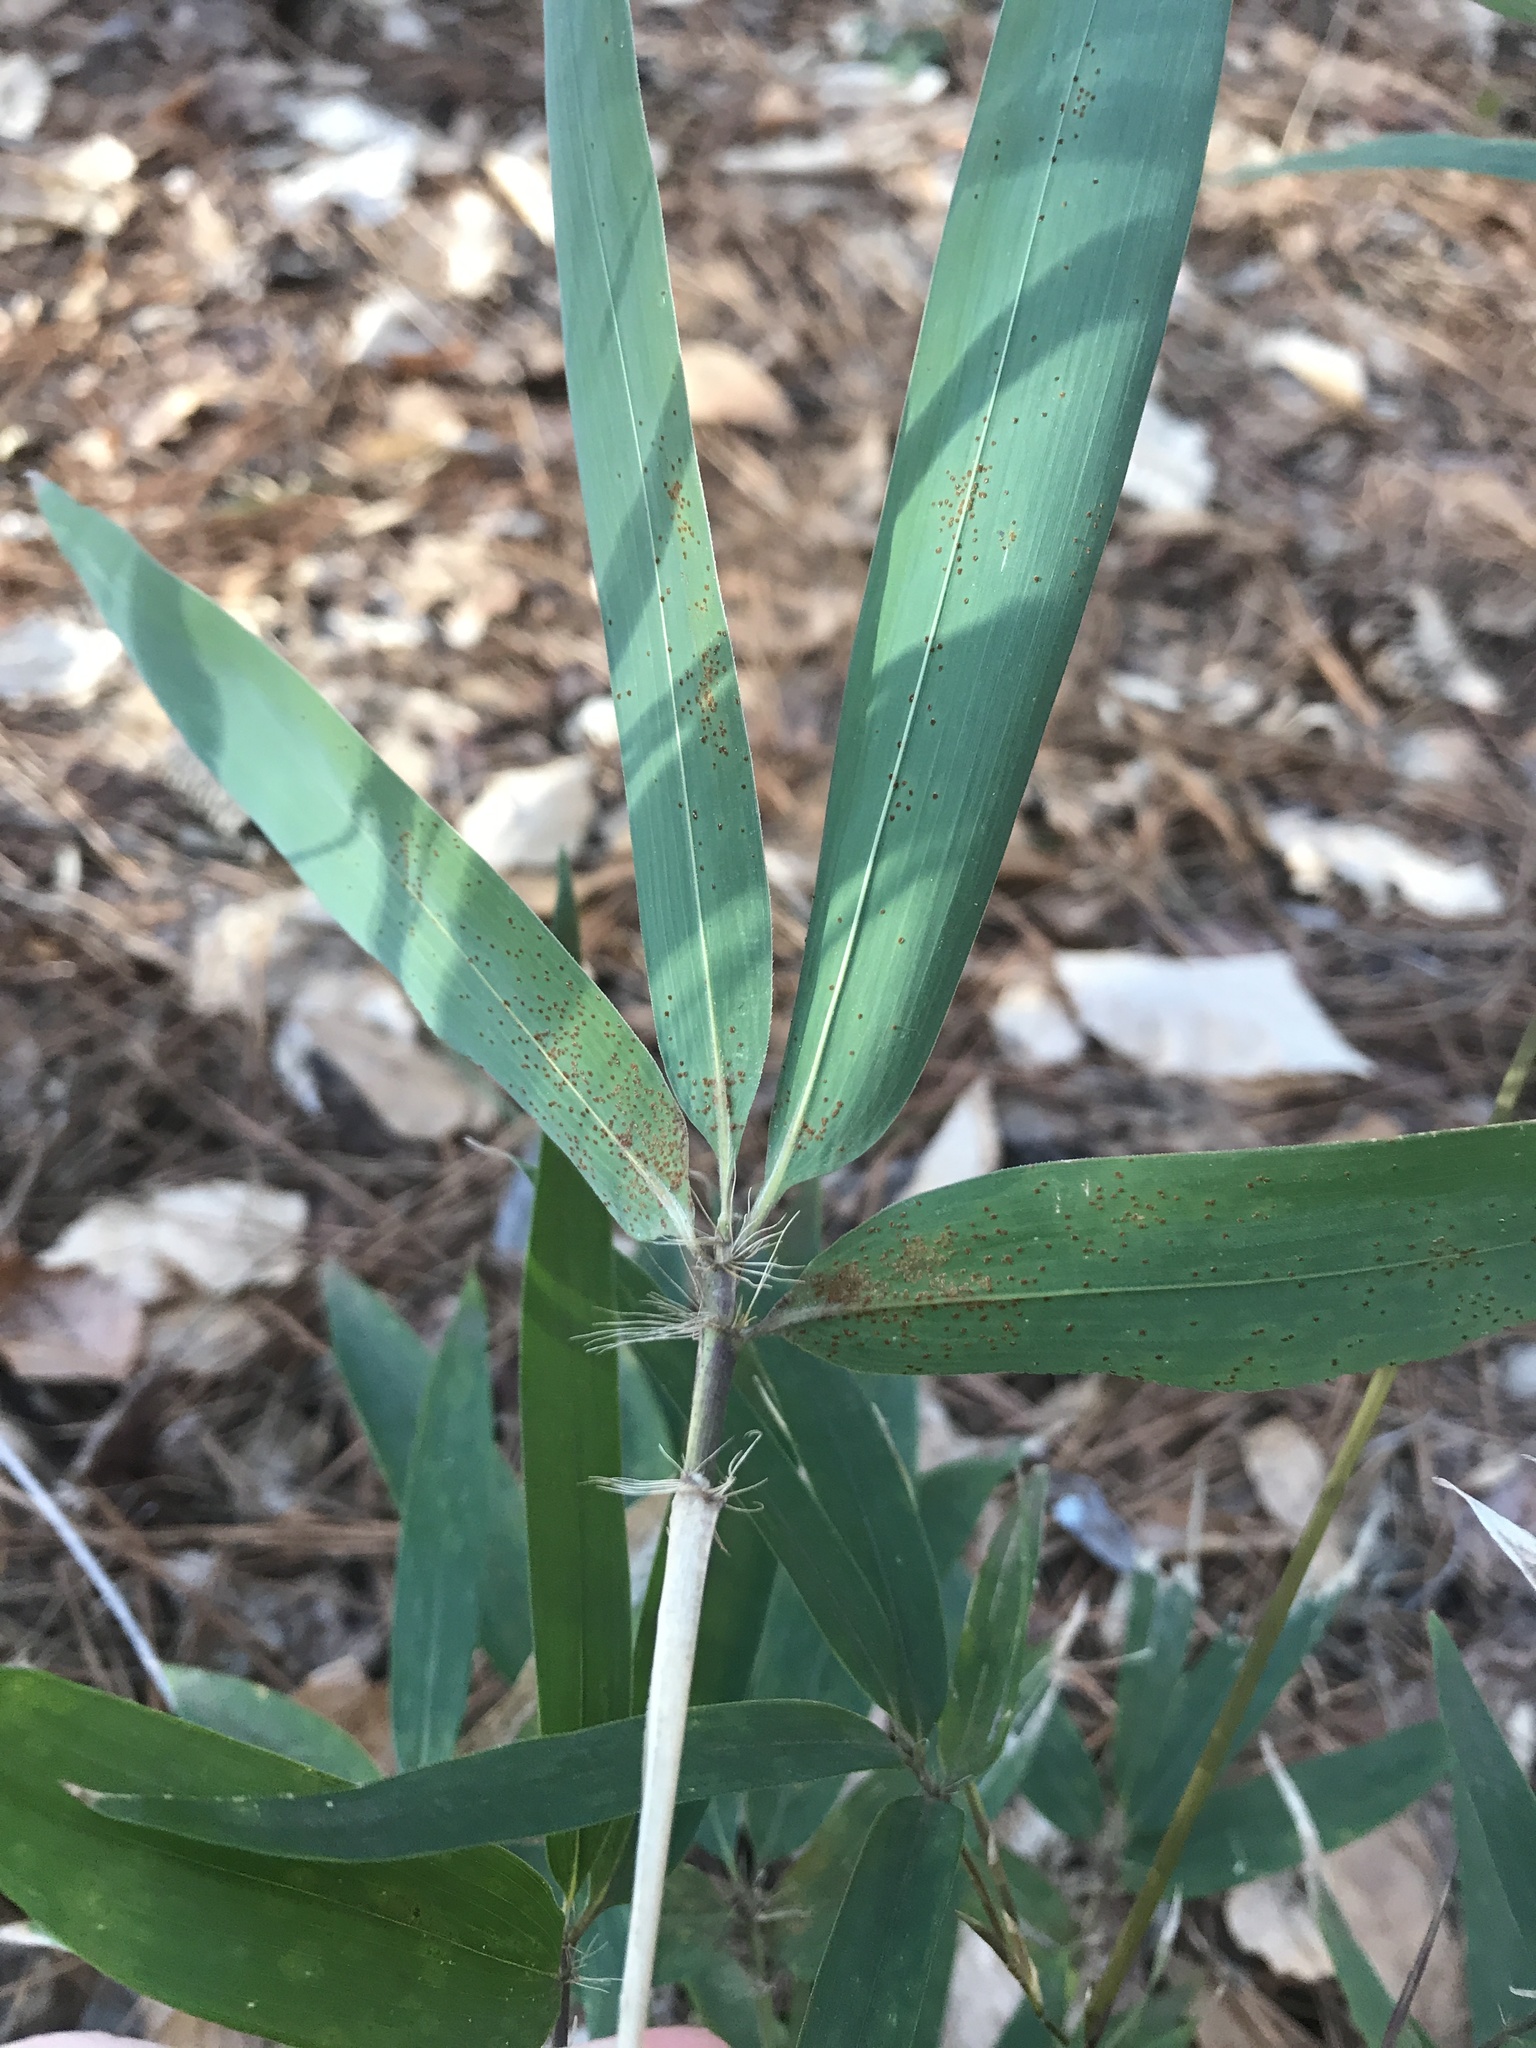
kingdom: Plantae
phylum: Tracheophyta
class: Liliopsida
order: Poales
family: Poaceae
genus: Arundinaria
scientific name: Arundinaria gigantea
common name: Giant cane
